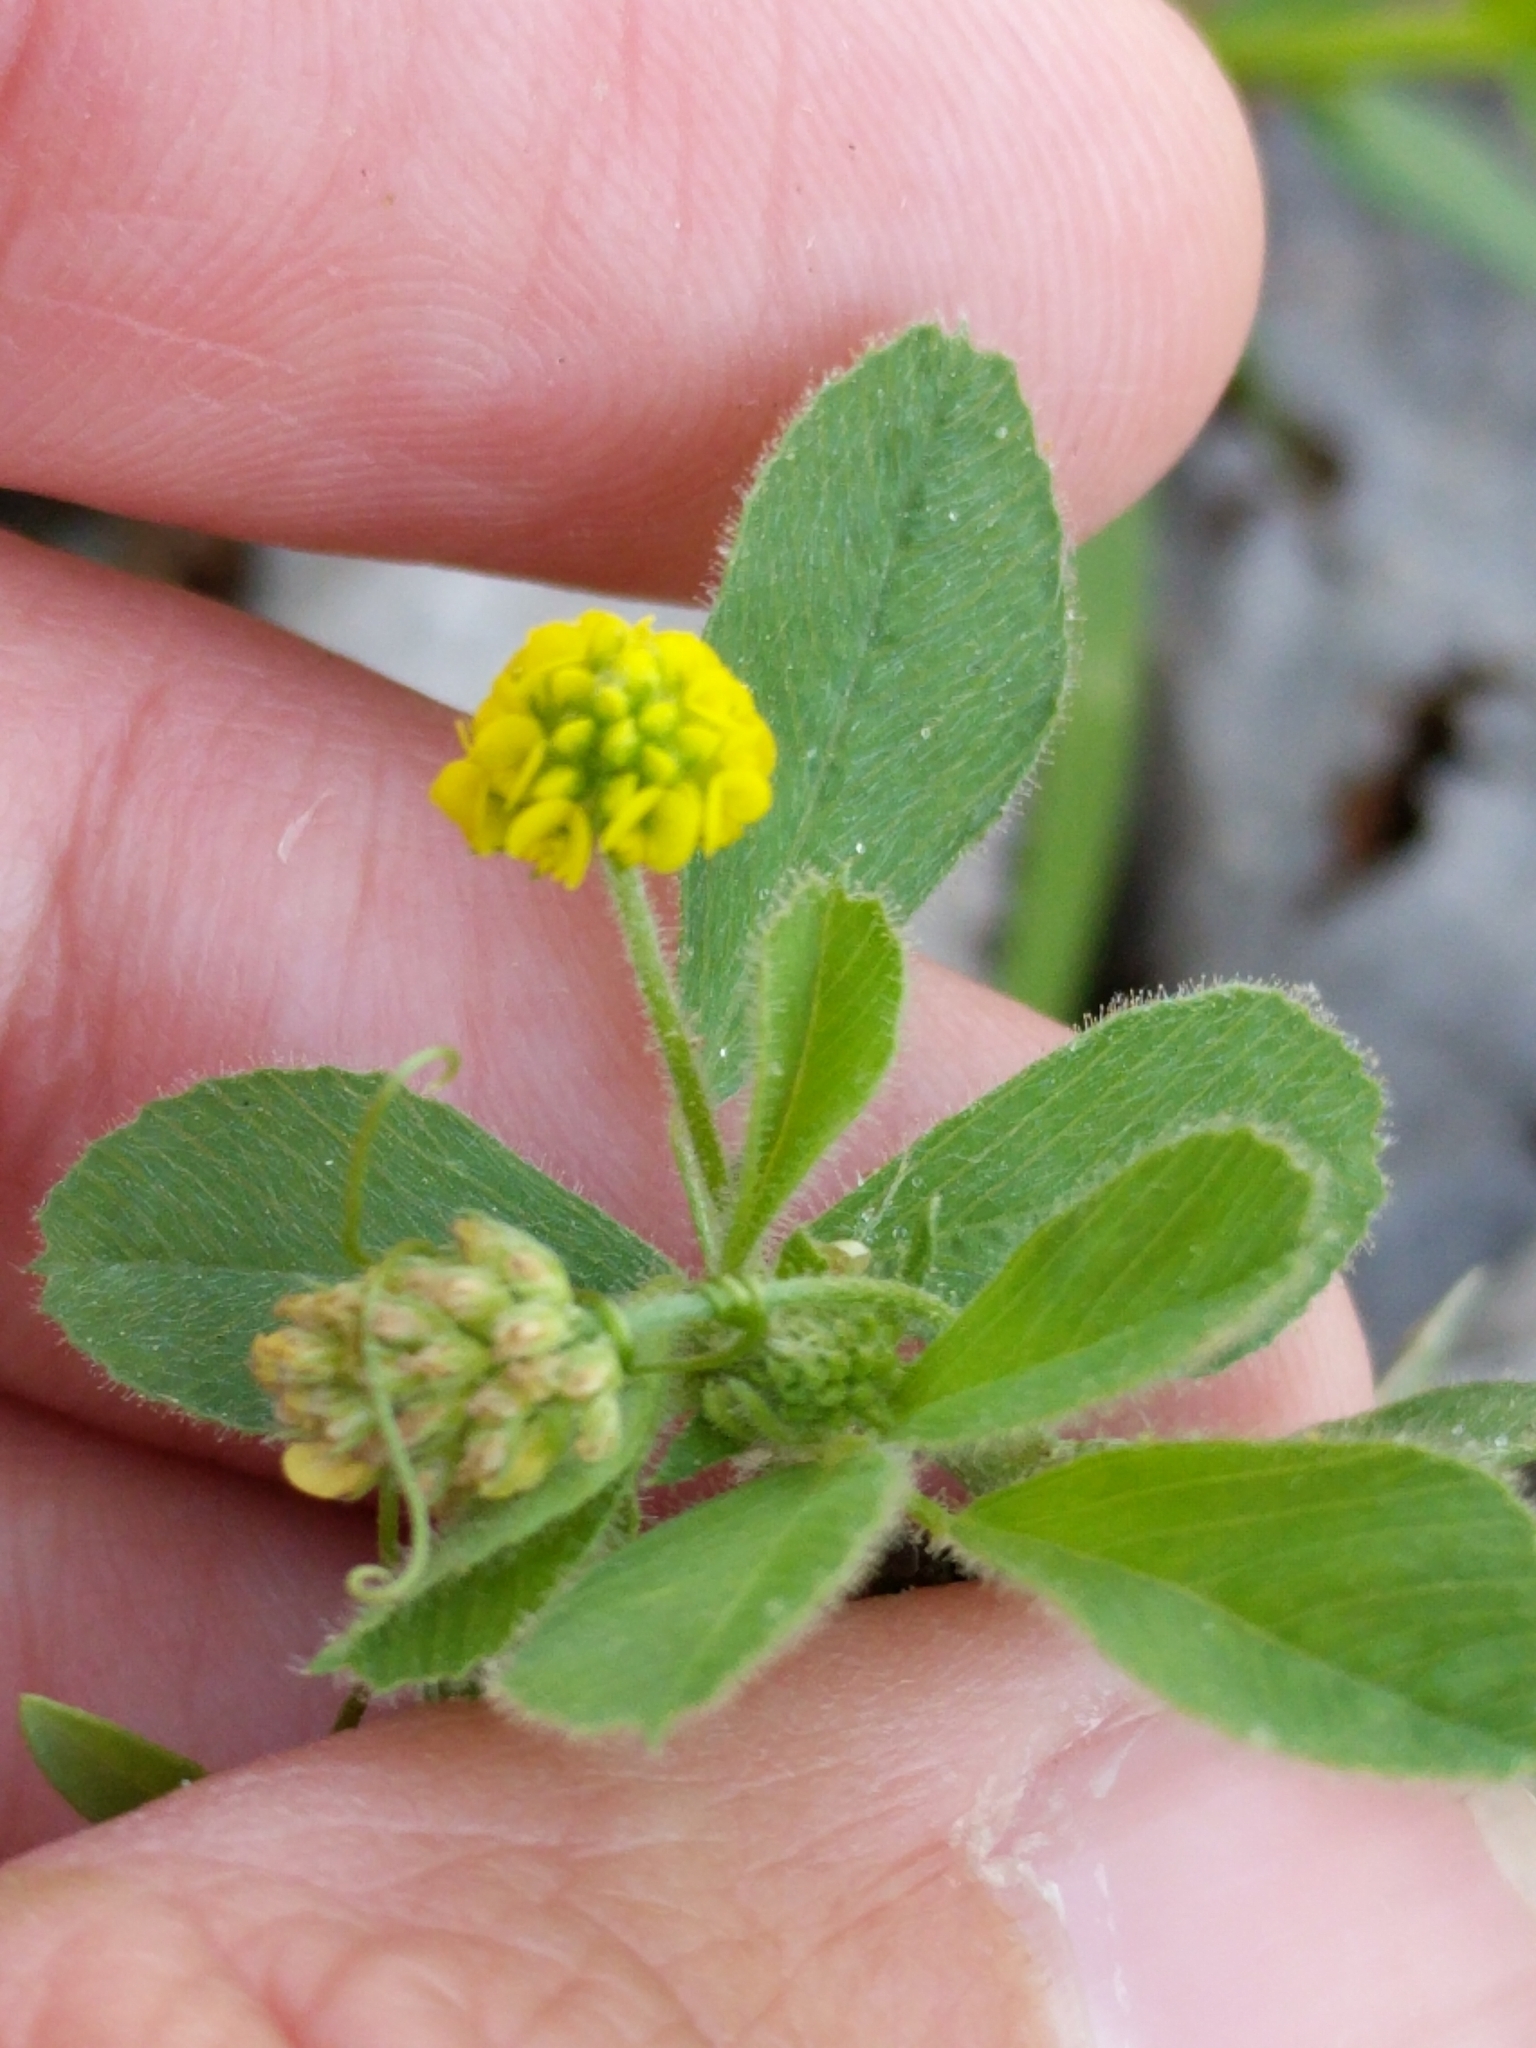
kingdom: Plantae
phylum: Tracheophyta
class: Magnoliopsida
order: Fabales
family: Fabaceae
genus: Medicago
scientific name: Medicago lupulina
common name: Black medick
